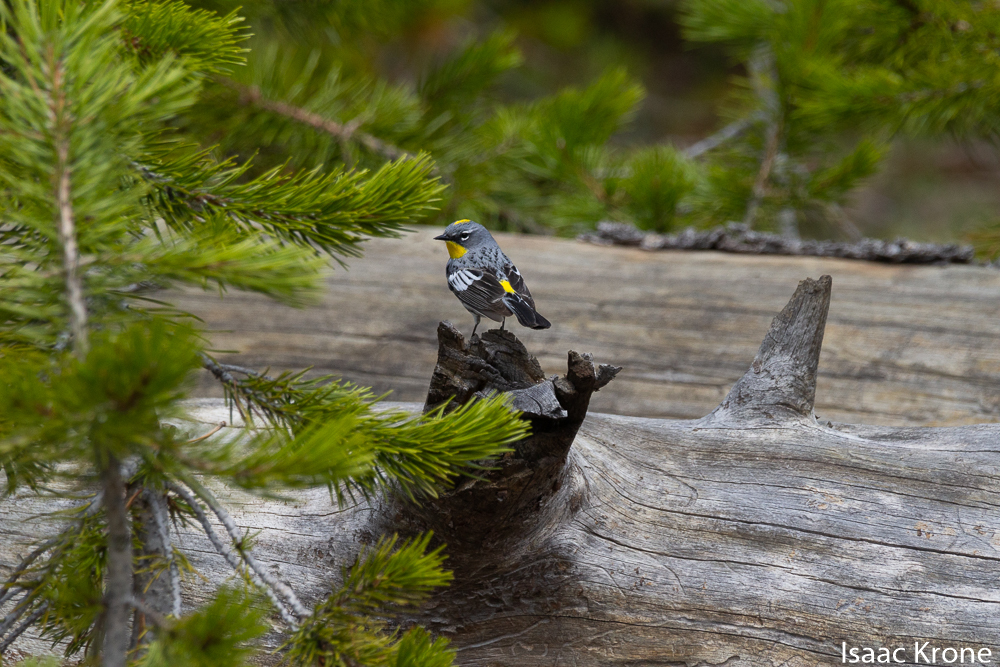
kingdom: Animalia
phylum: Chordata
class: Aves
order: Passeriformes
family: Parulidae
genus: Setophaga
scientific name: Setophaga coronata
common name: Myrtle warbler
